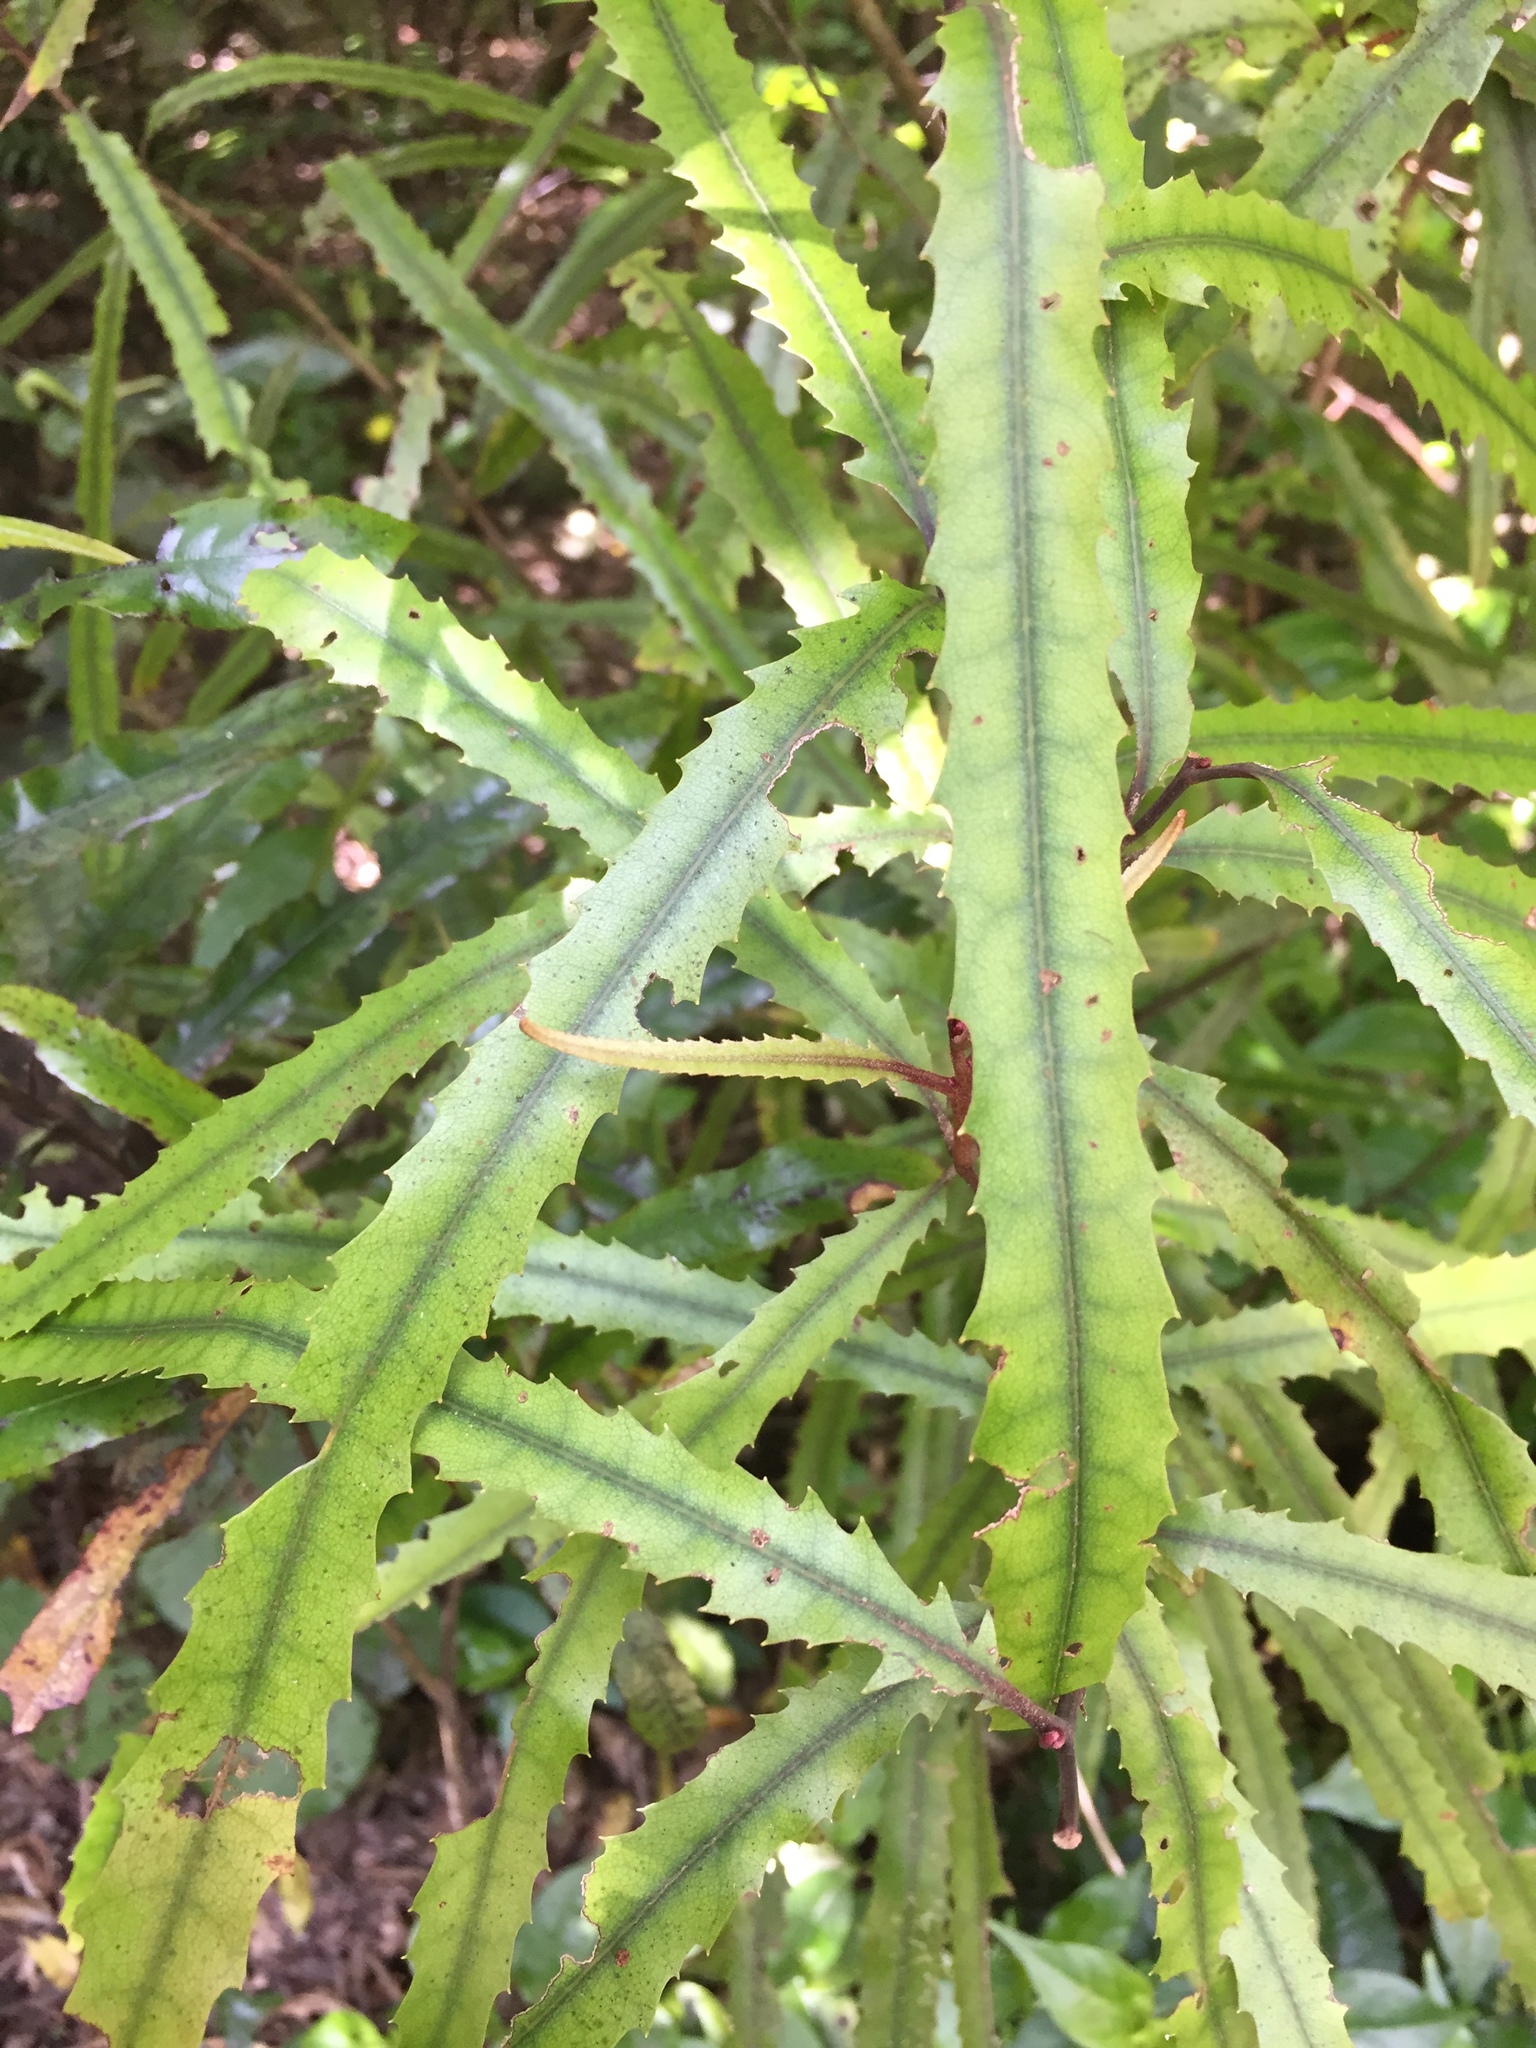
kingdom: Plantae
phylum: Tracheophyta
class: Magnoliopsida
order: Proteales
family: Proteaceae
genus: Knightia
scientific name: Knightia excelsa
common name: New zealand-honeysuckle
